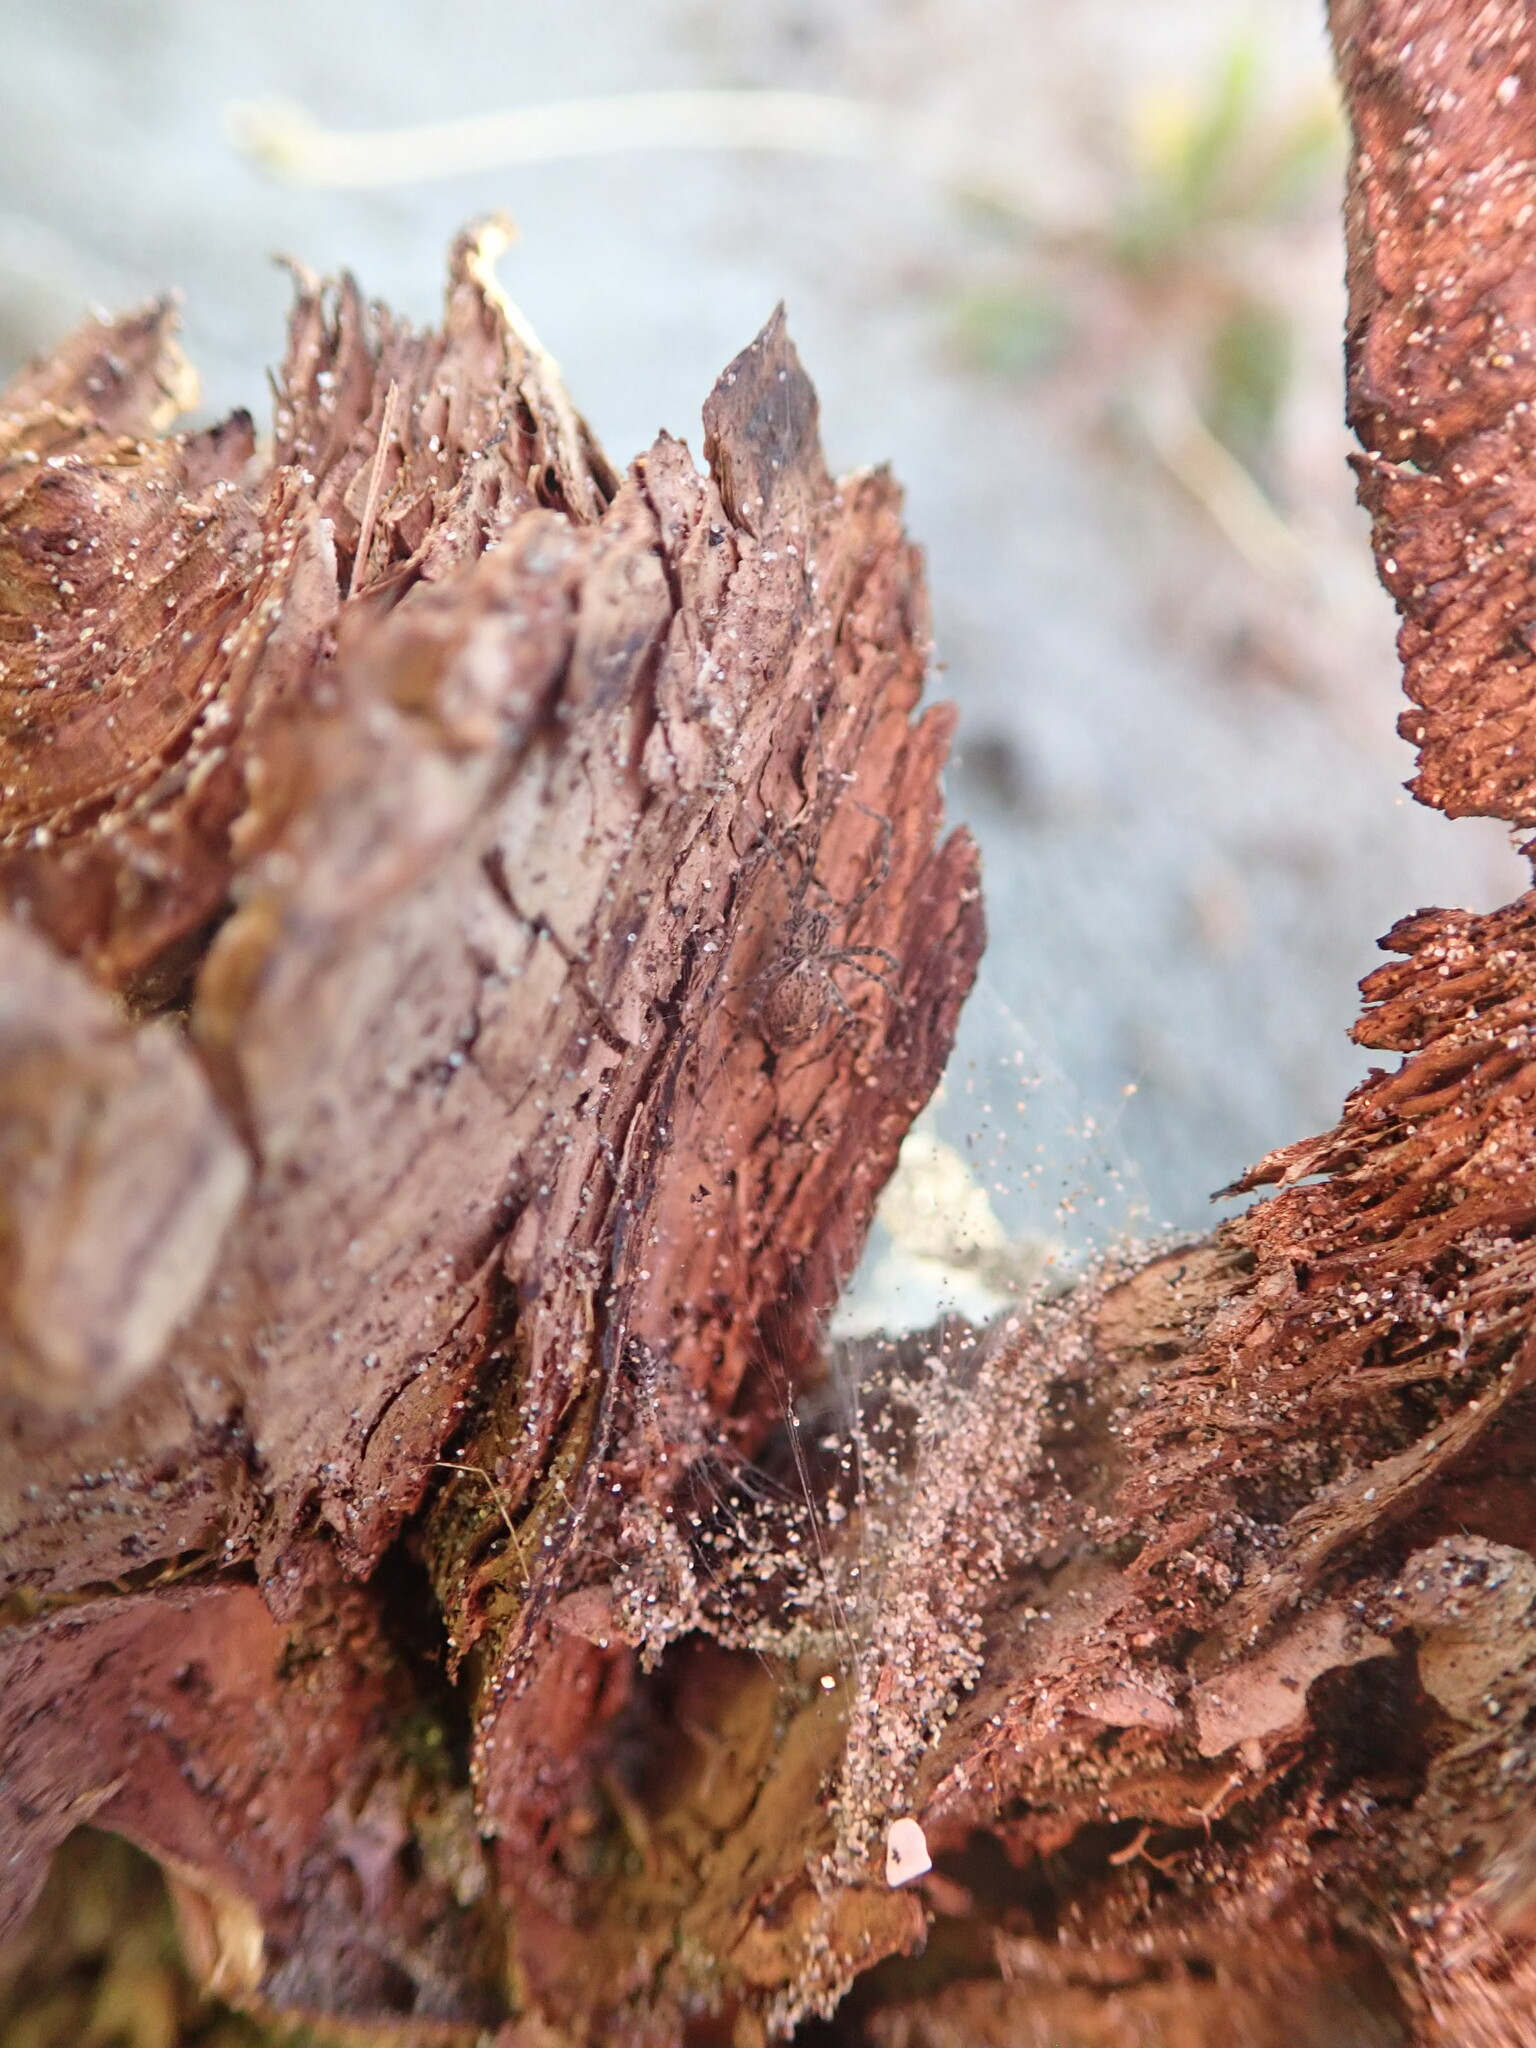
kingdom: Animalia
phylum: Arthropoda
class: Arachnida
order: Araneae
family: Stiphidiidae
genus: Stiphidion
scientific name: Stiphidion facetum
